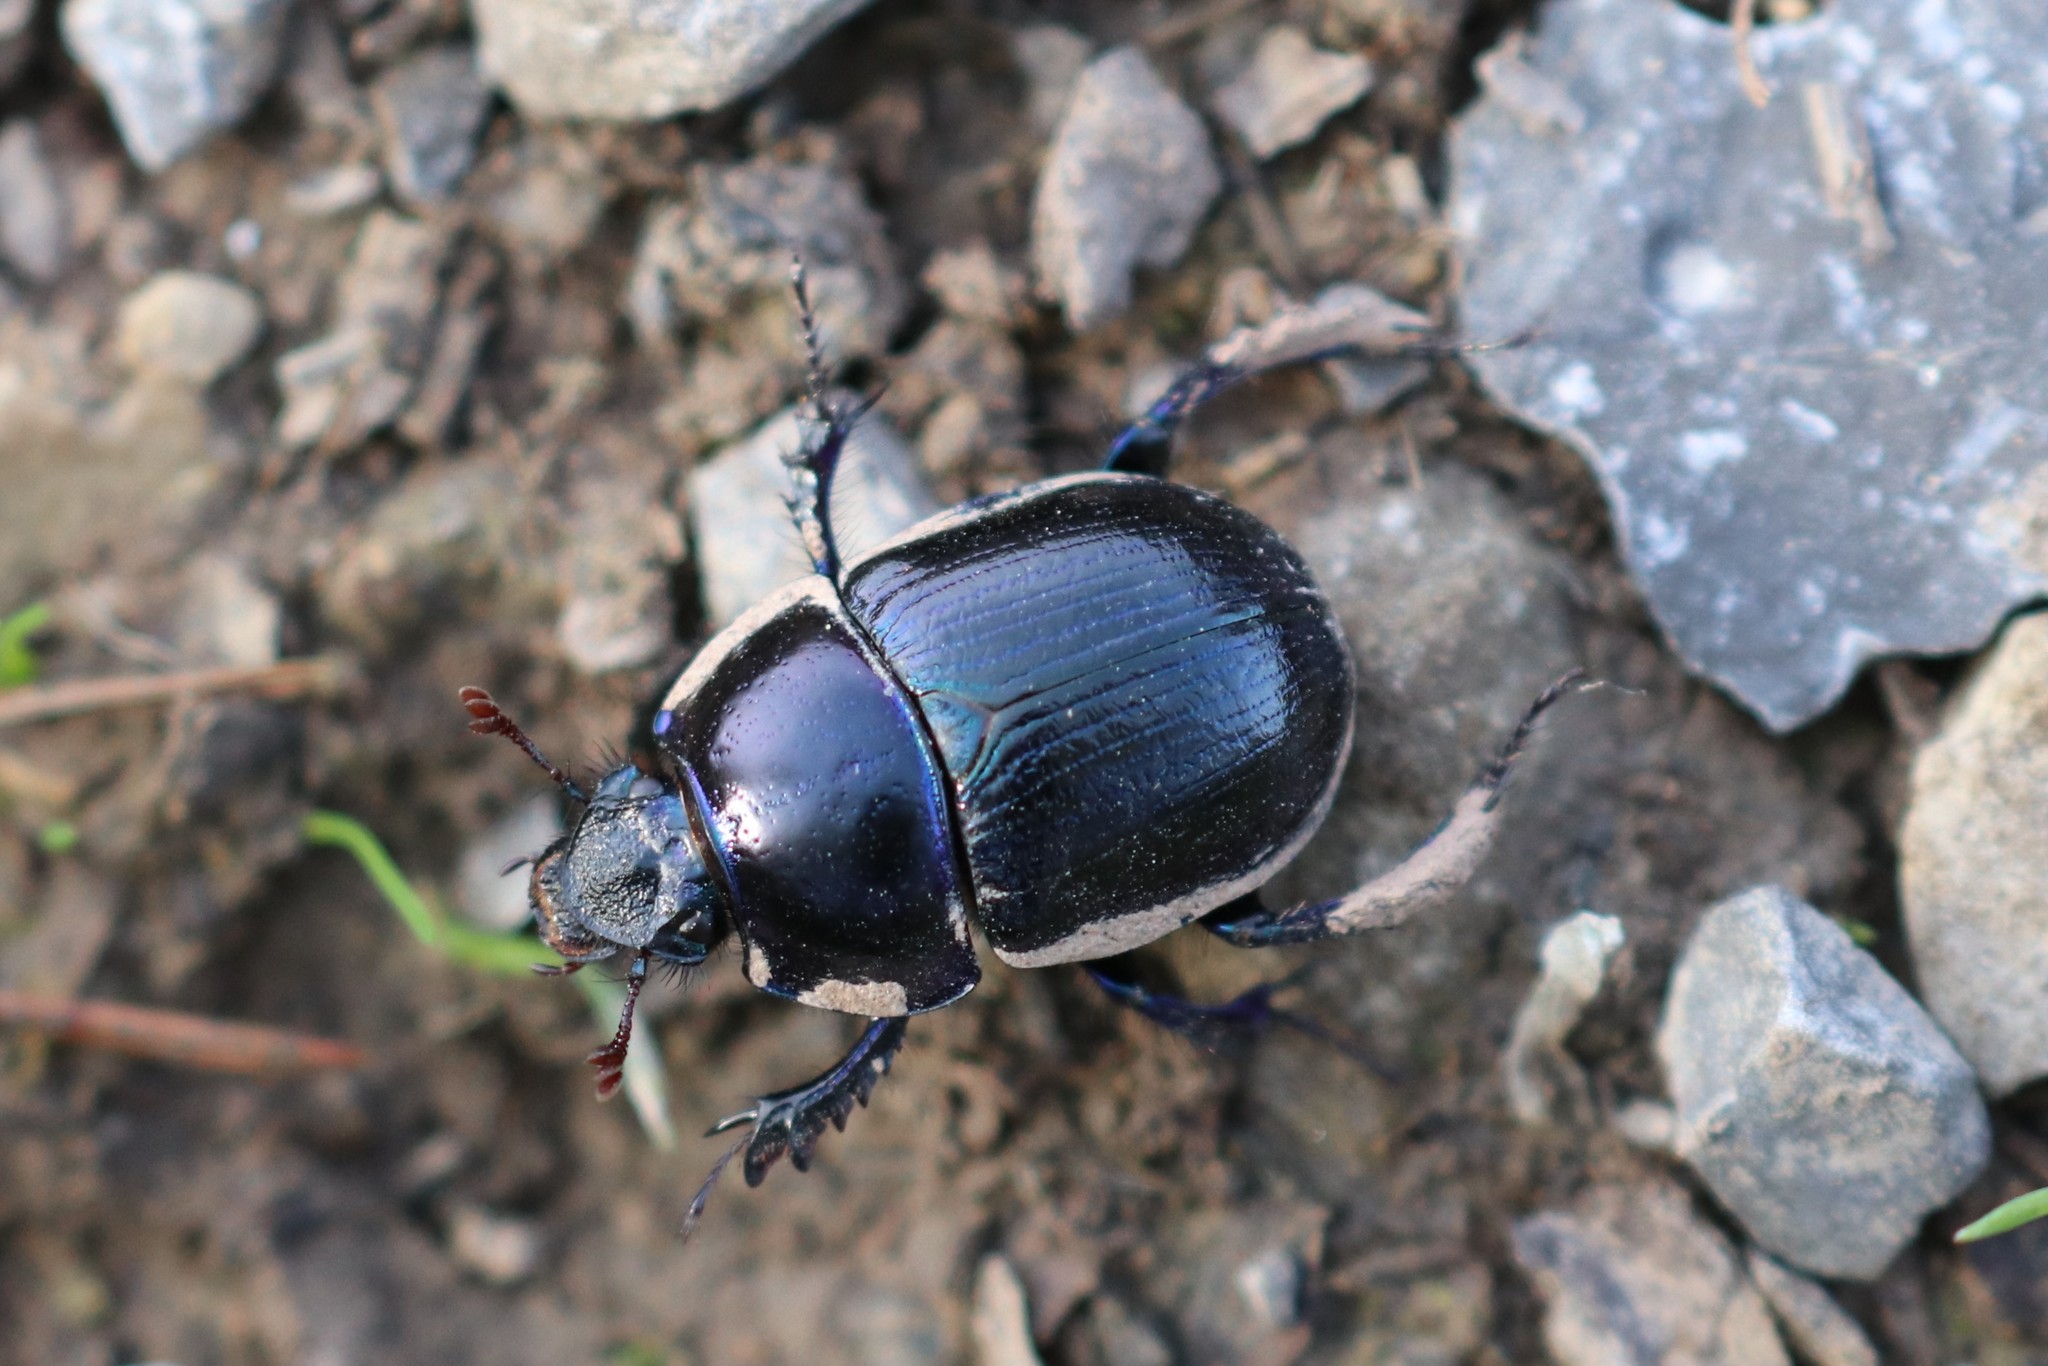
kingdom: Animalia
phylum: Arthropoda
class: Insecta
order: Coleoptera
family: Geotrupidae
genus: Anoplotrupes
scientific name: Anoplotrupes stercorosus
